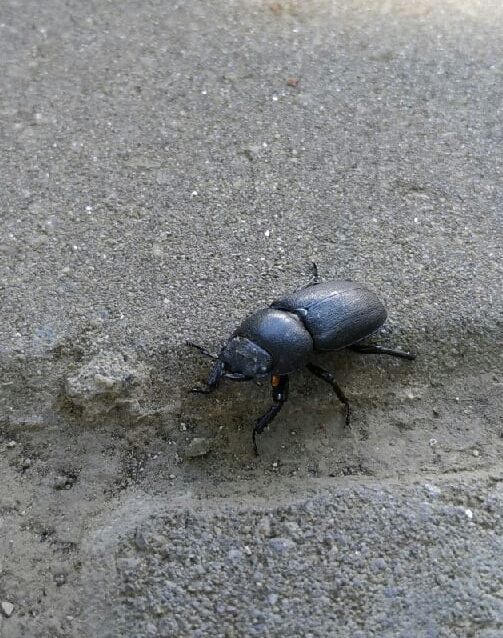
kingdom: Animalia
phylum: Arthropoda
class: Insecta
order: Coleoptera
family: Lucanidae
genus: Dorcus
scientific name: Dorcus parallelipipedus
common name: Lesser stag beetle
